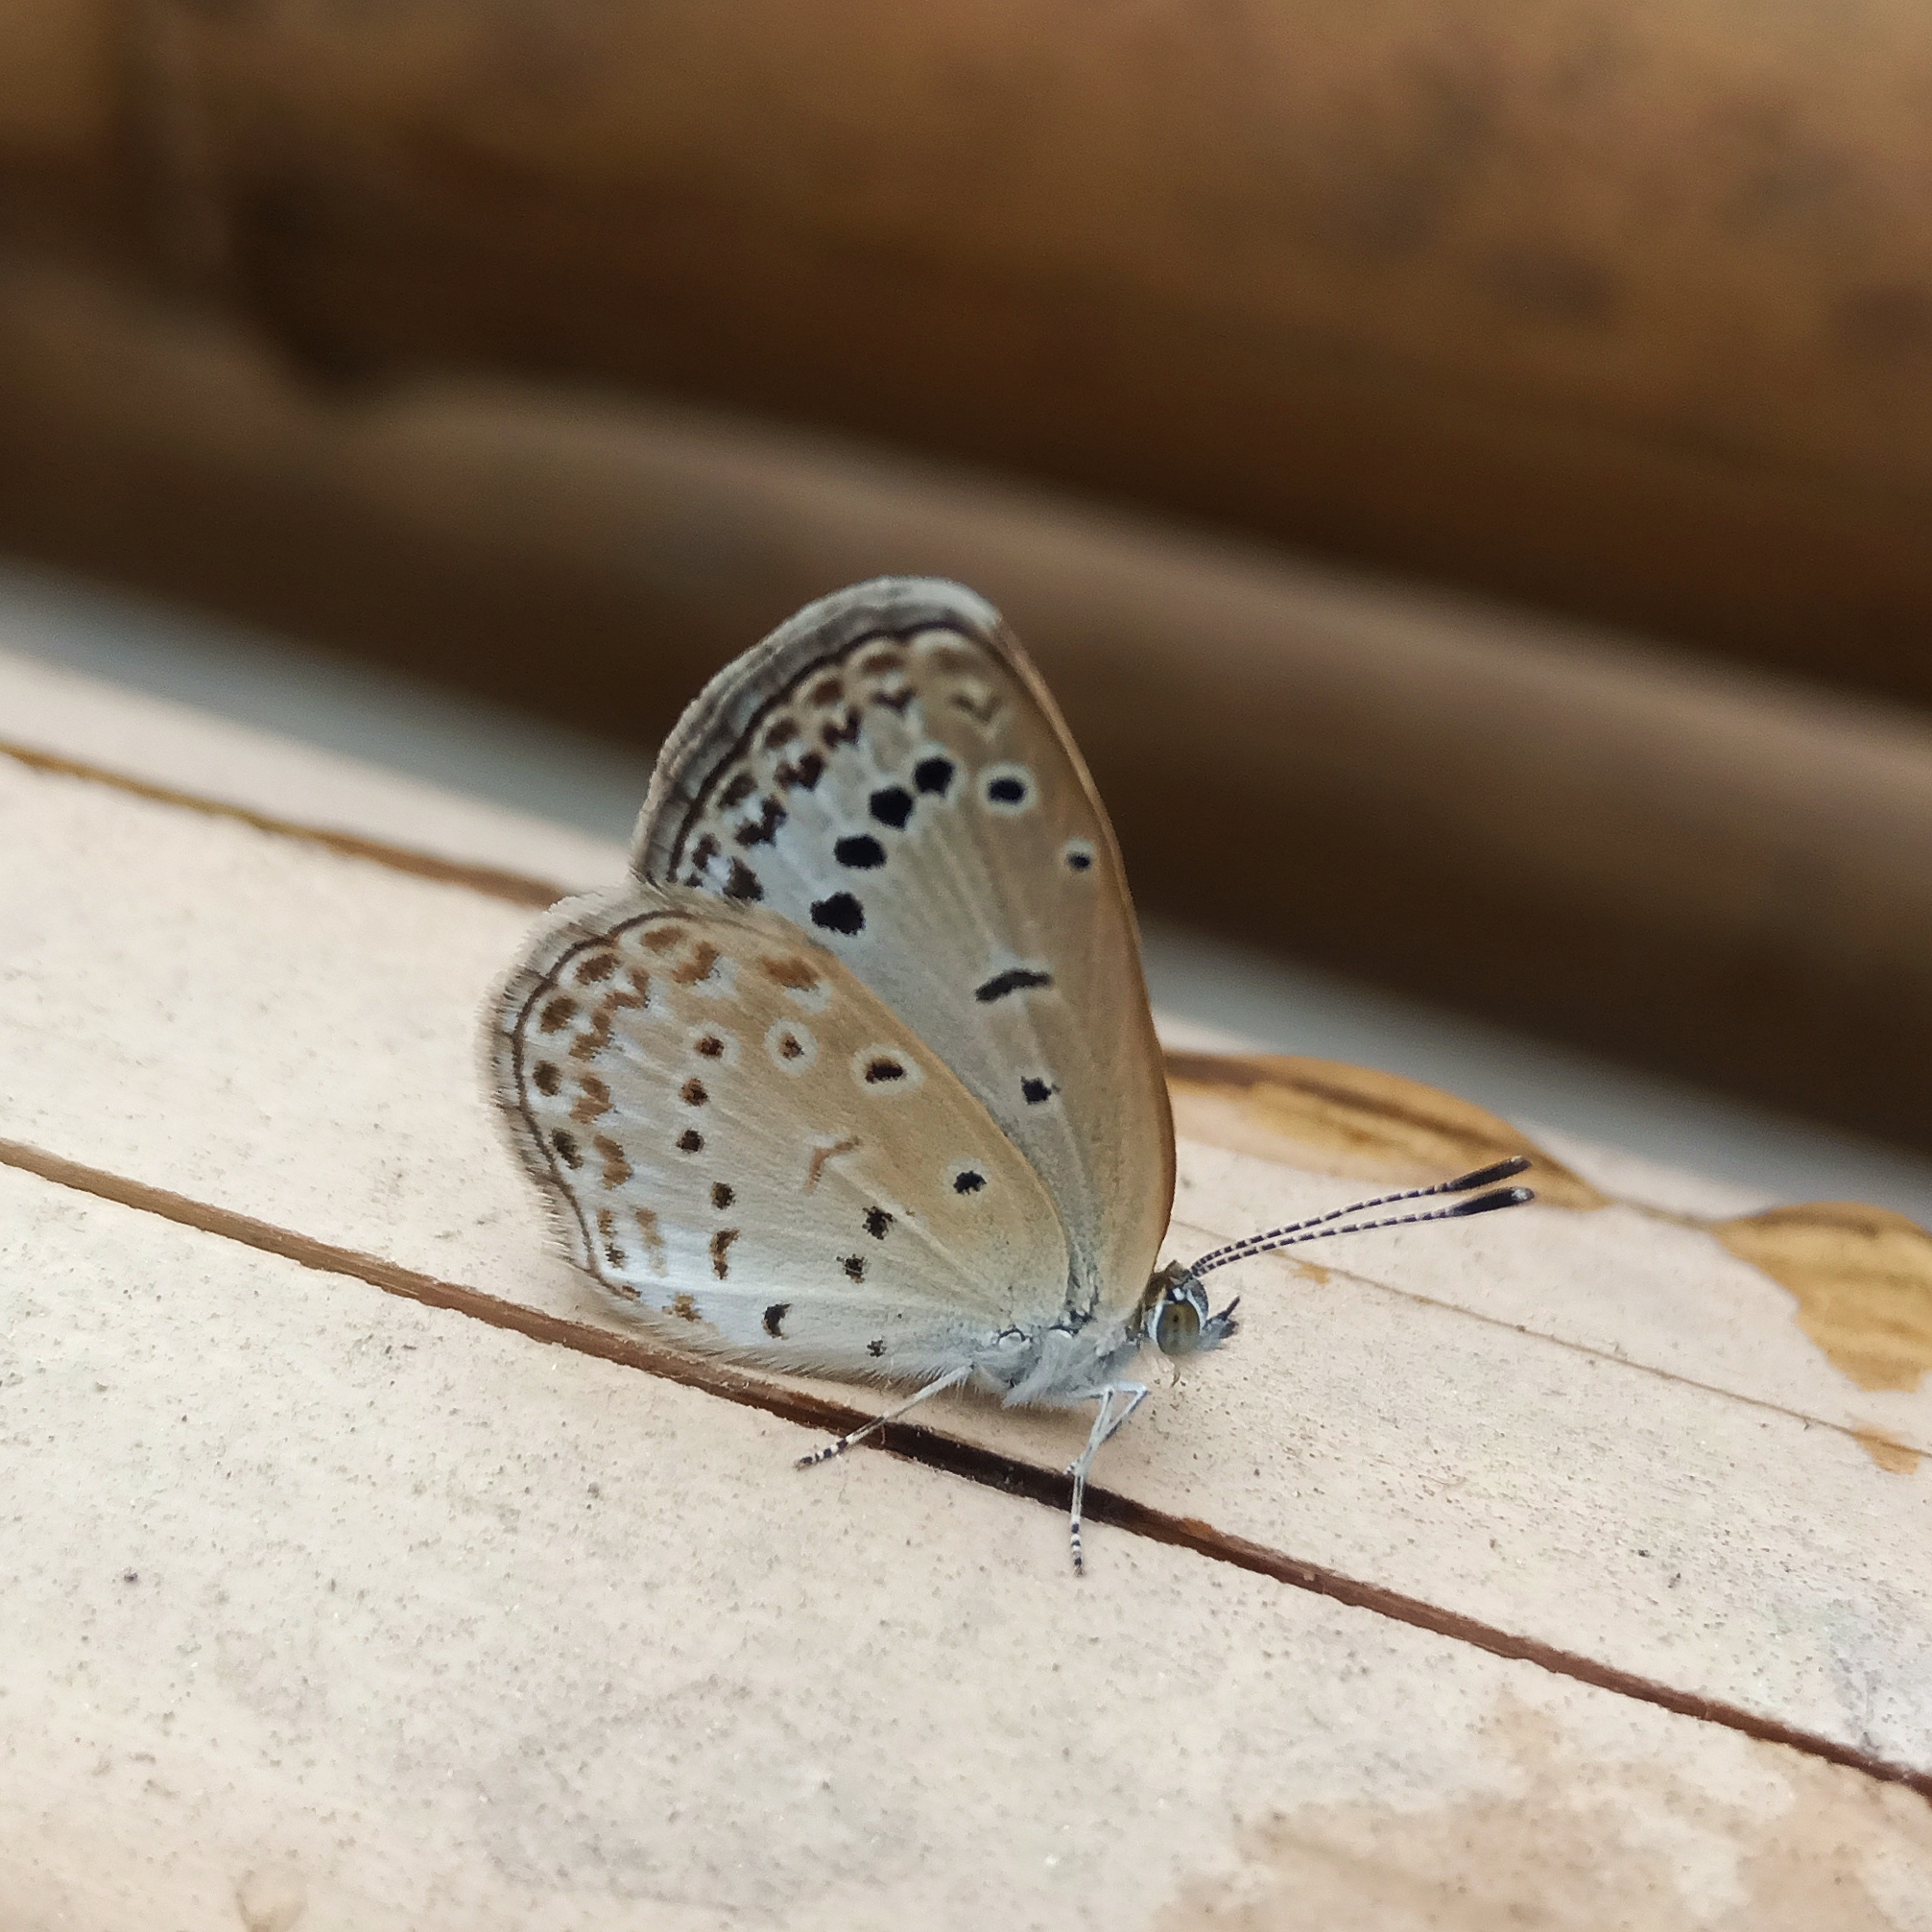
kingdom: Animalia
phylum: Arthropoda
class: Insecta
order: Lepidoptera
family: Lycaenidae
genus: Pseudozizeeria
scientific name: Pseudozizeeria maha
